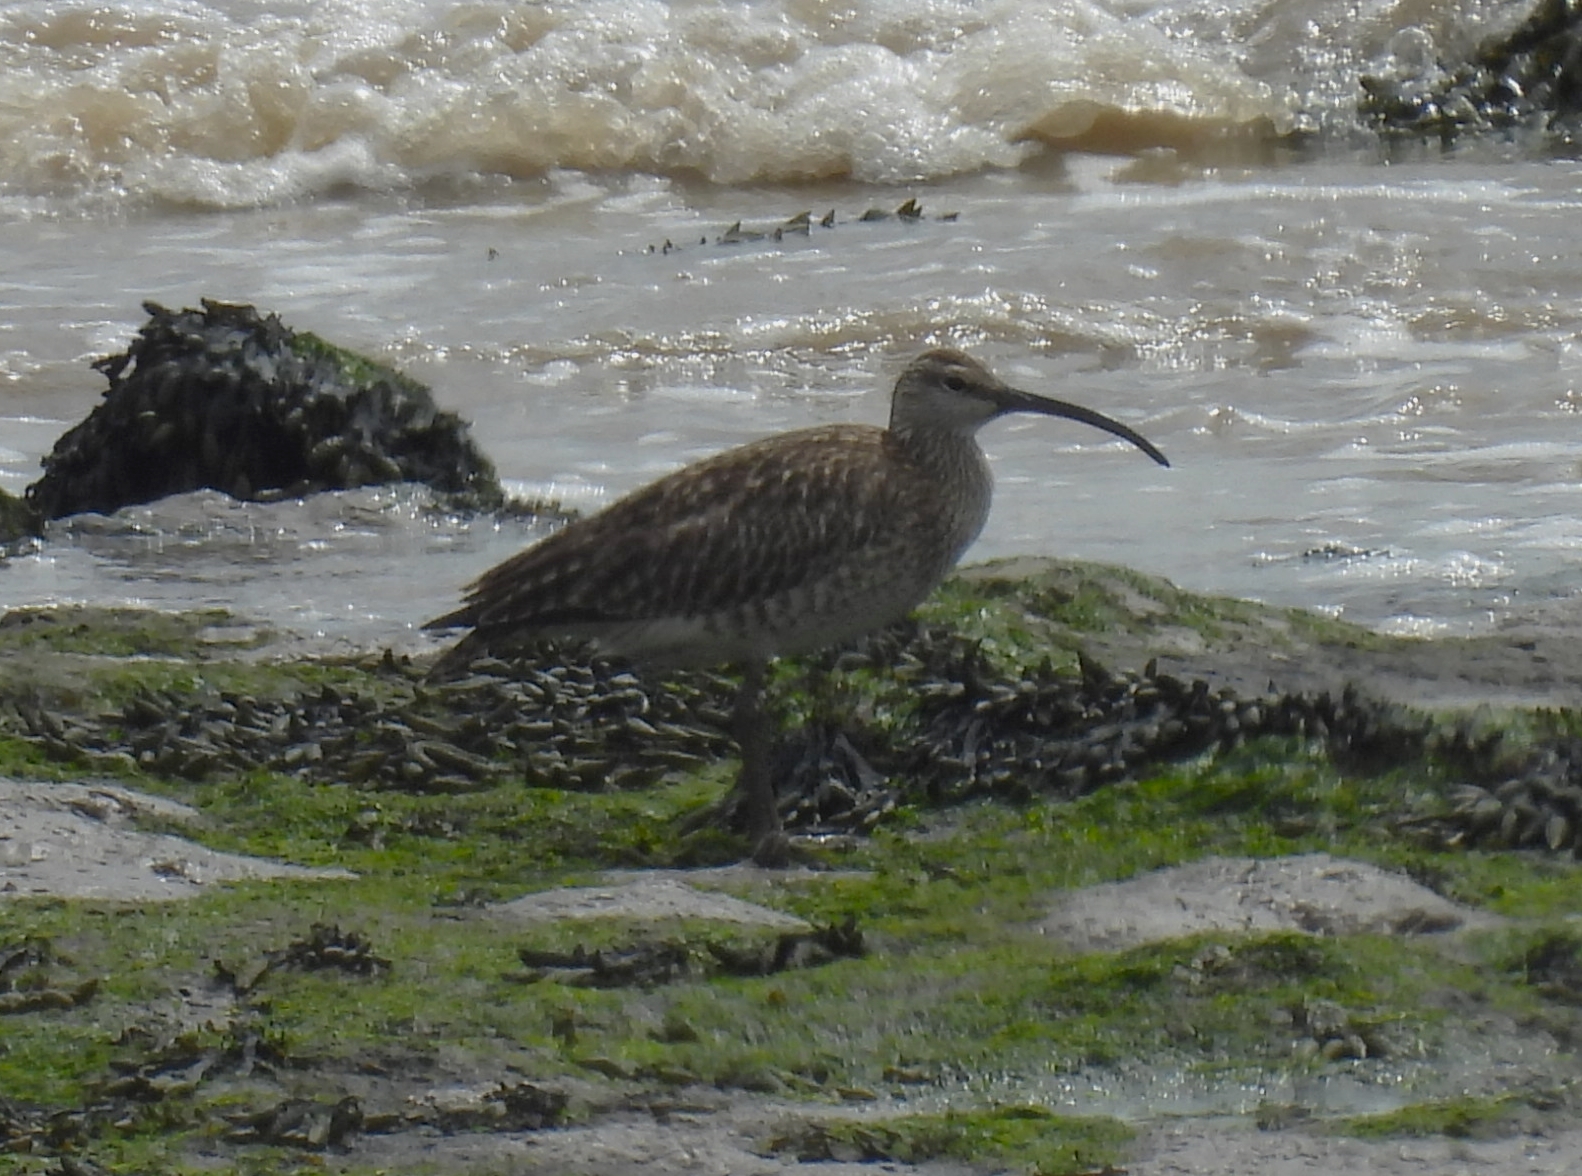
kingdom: Animalia
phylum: Chordata
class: Aves
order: Charadriiformes
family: Scolopacidae
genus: Numenius
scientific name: Numenius phaeopus
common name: Whimbrel
